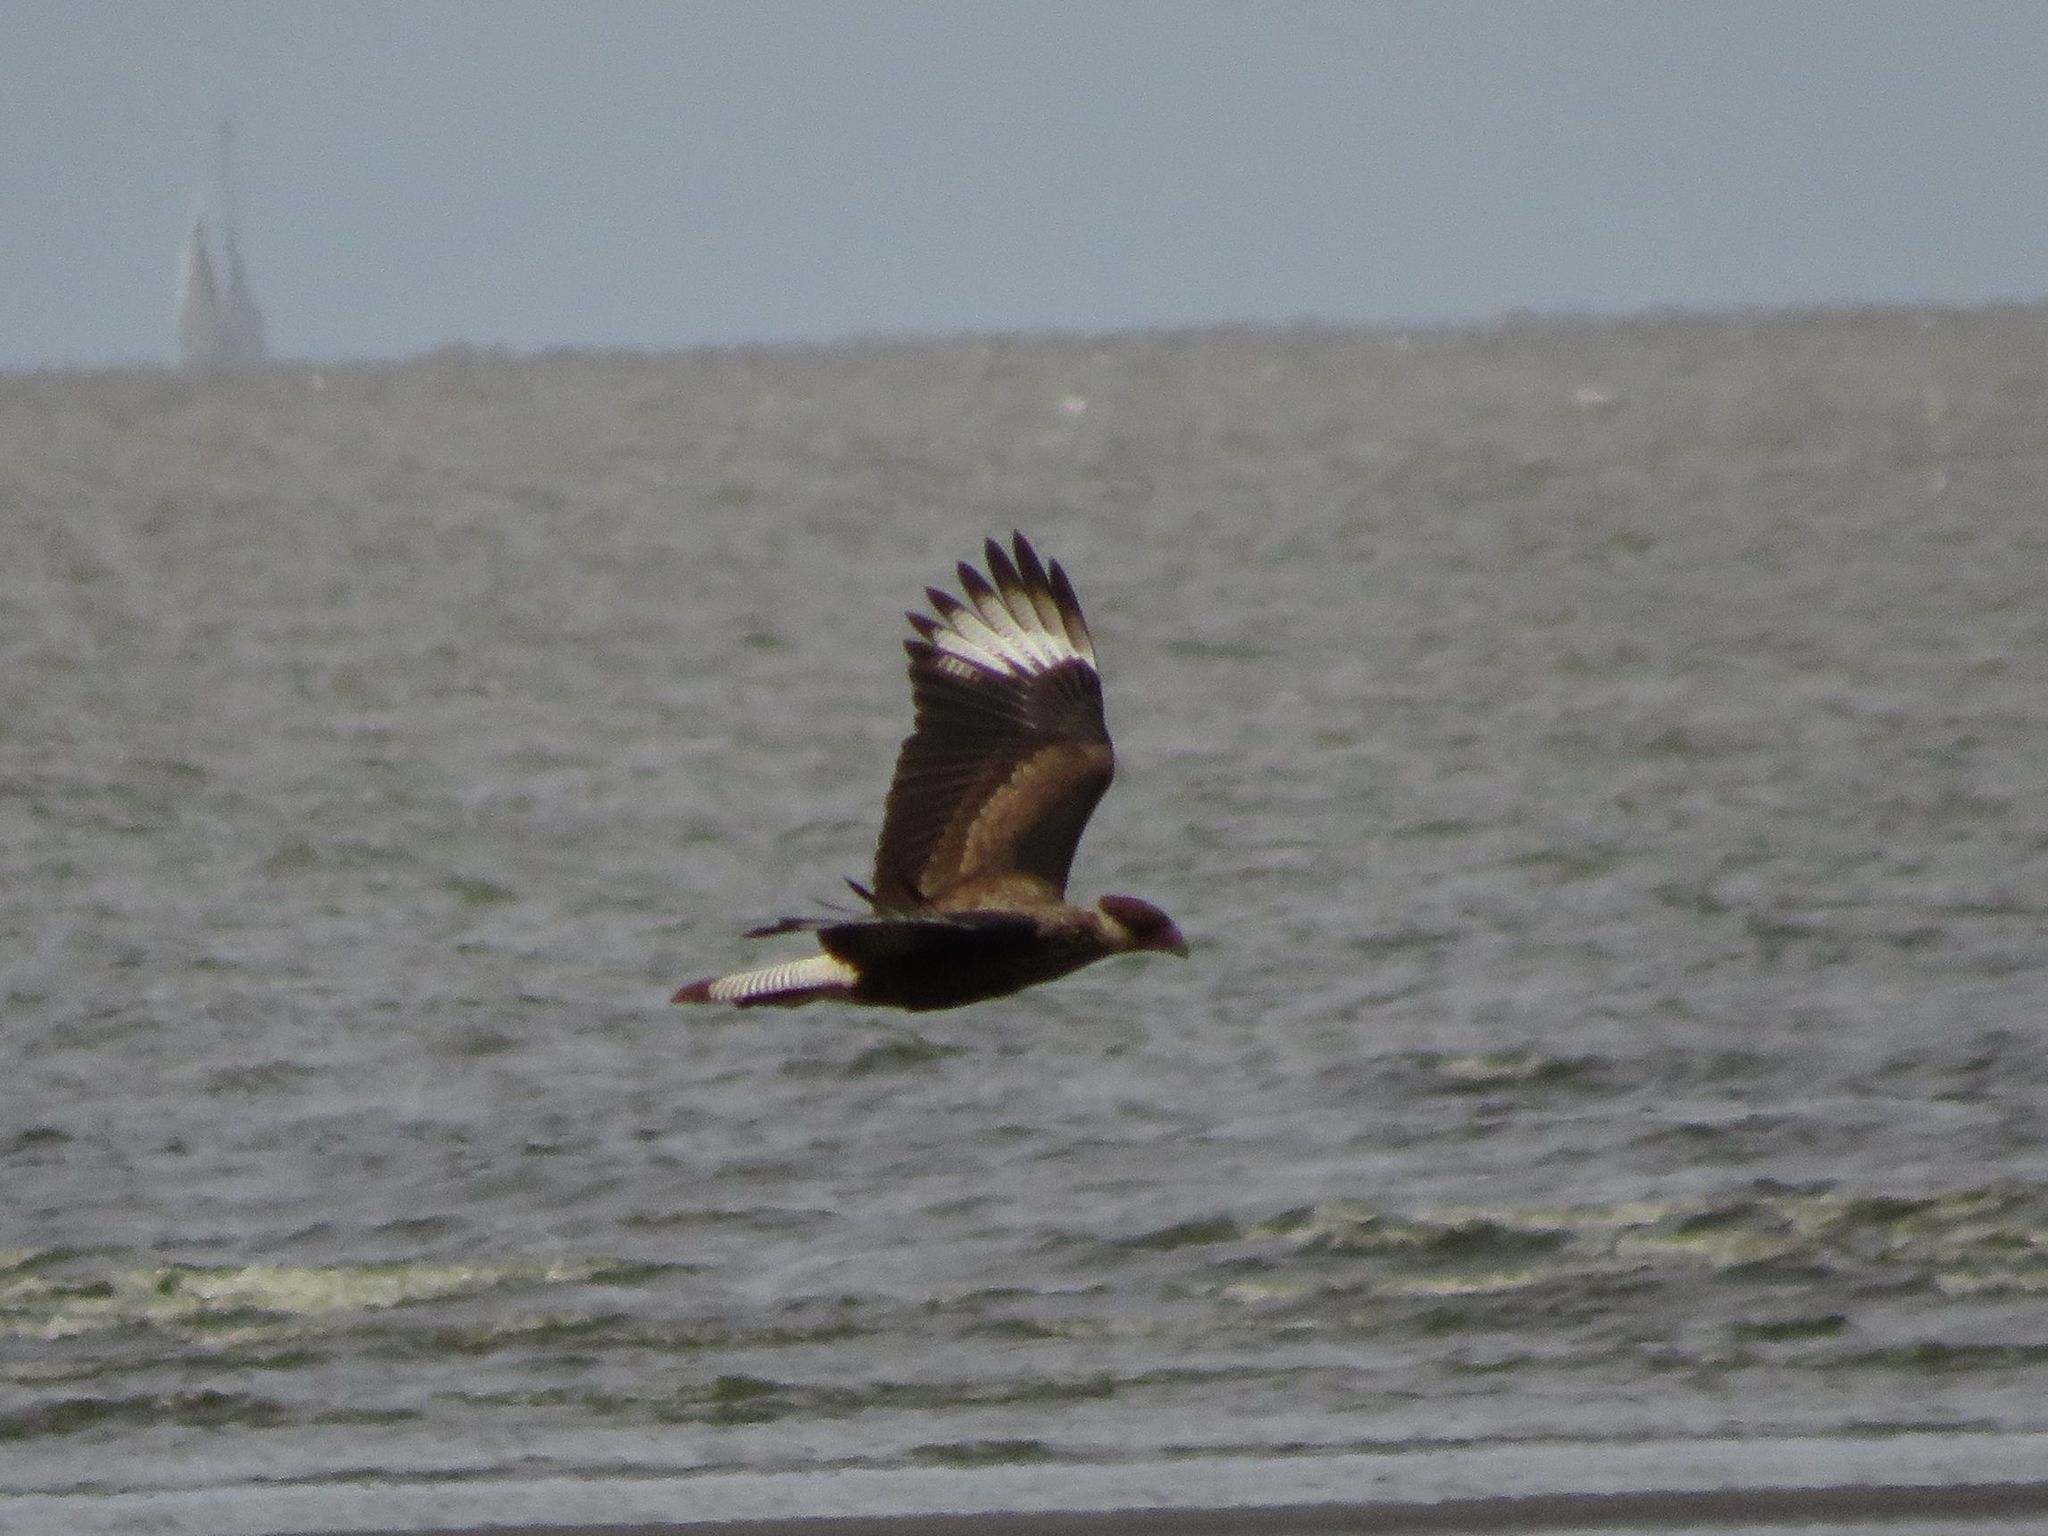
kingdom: Animalia
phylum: Chordata
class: Aves
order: Falconiformes
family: Falconidae
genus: Caracara
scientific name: Caracara plancus
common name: Southern caracara
